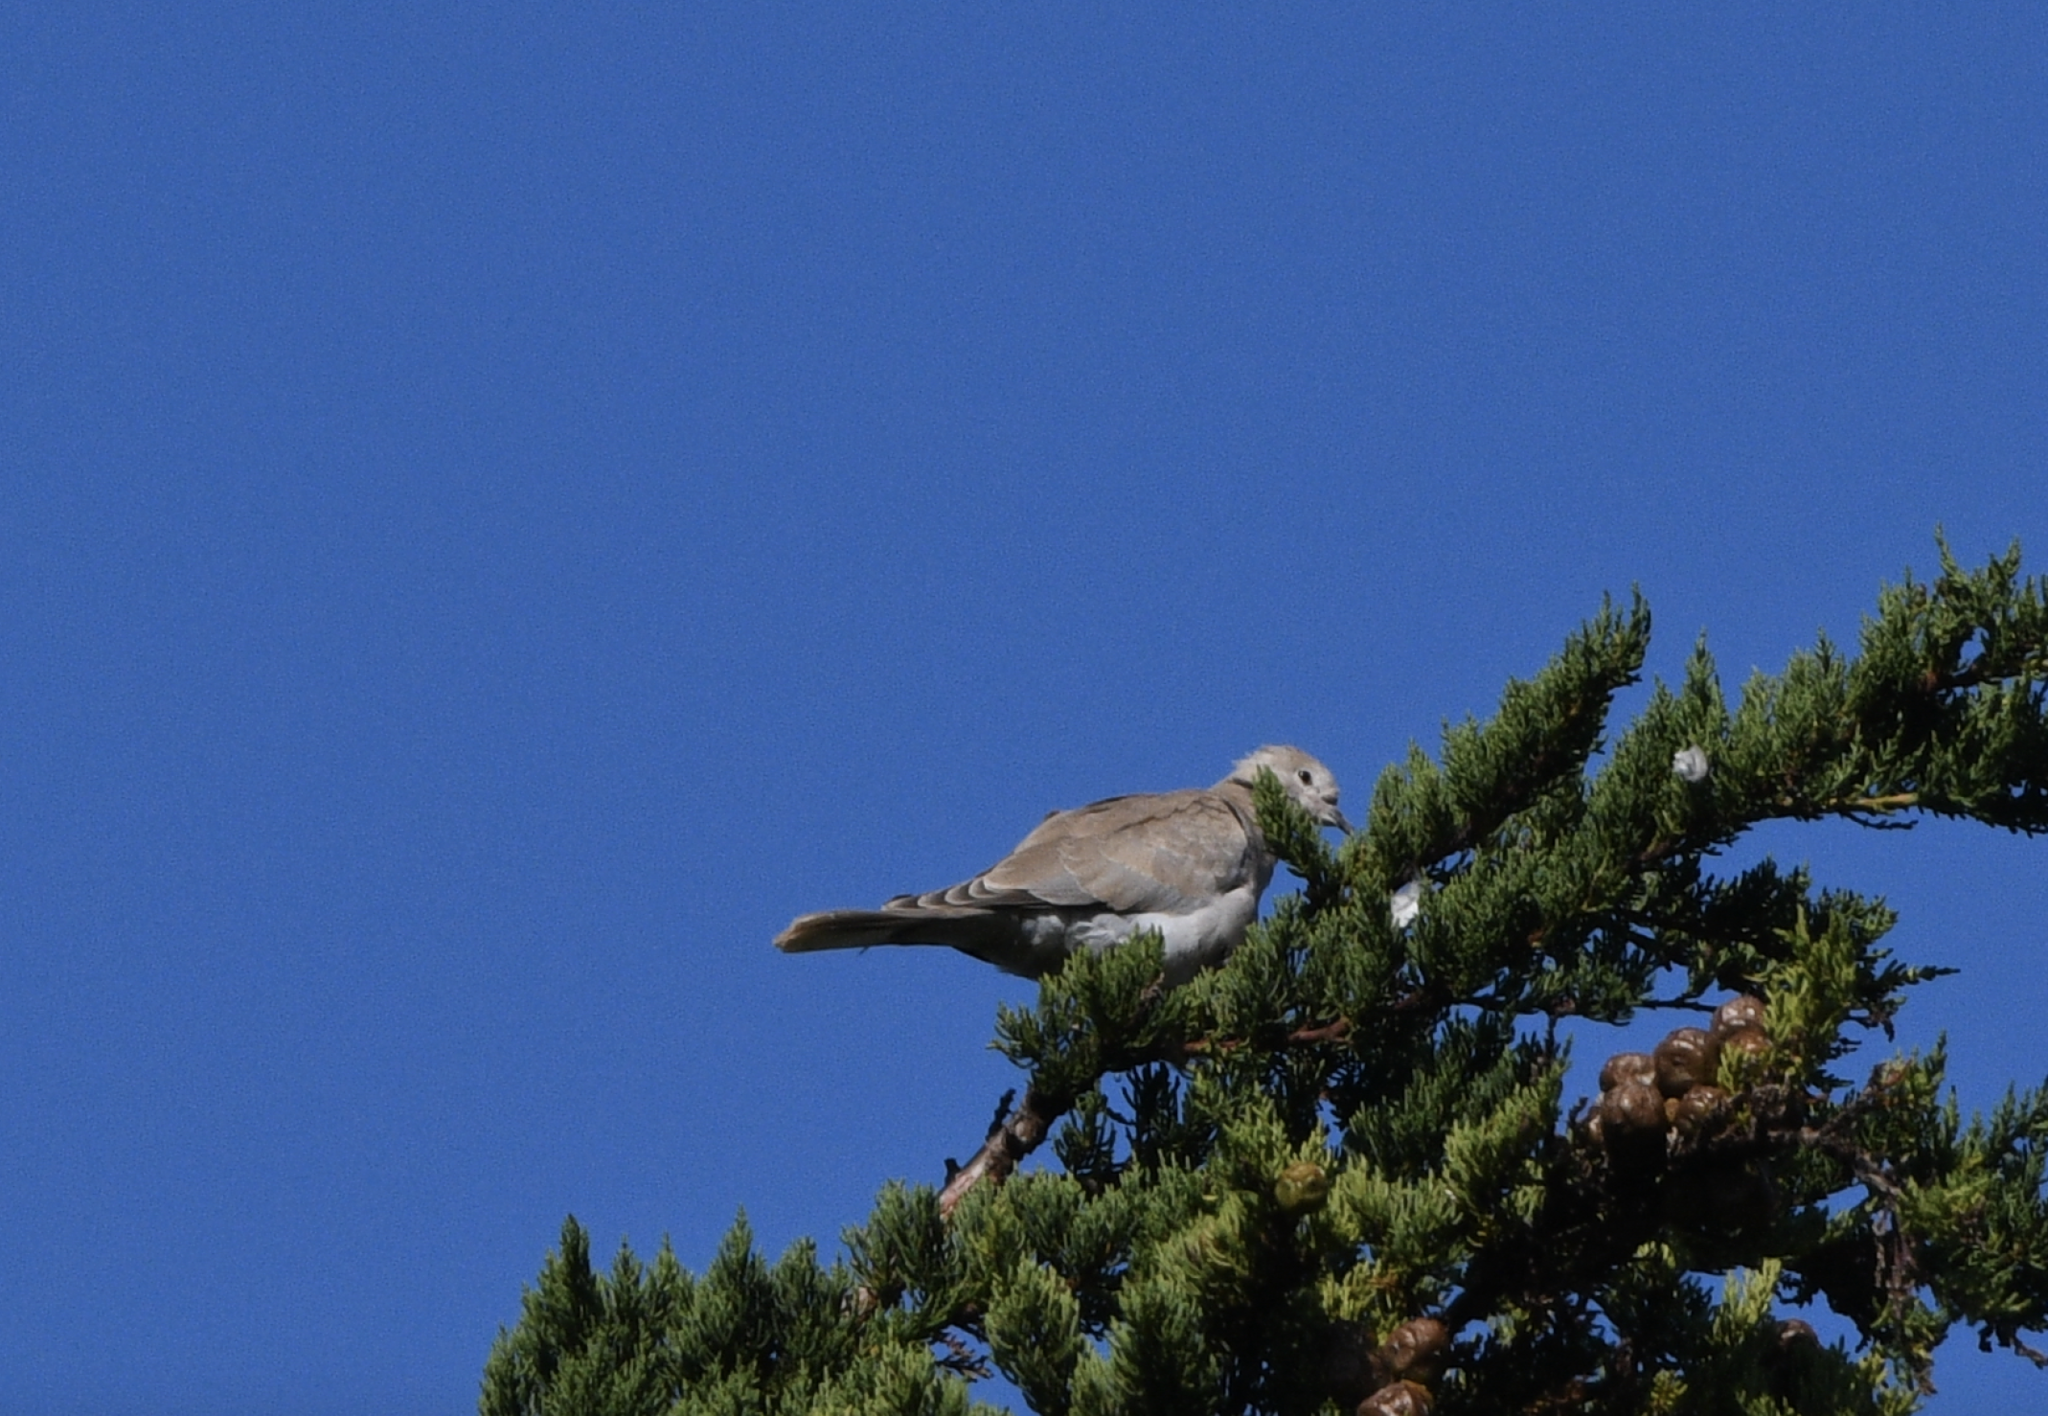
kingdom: Animalia
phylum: Chordata
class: Aves
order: Columbiformes
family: Columbidae
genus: Streptopelia
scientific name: Streptopelia decaocto
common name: Eurasian collared dove
